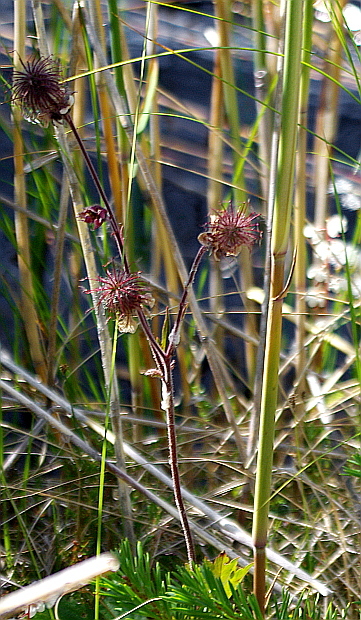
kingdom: Plantae
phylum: Tracheophyta
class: Magnoliopsida
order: Rosales
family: Rosaceae
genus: Geum
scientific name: Geum rivale
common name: Water avens
